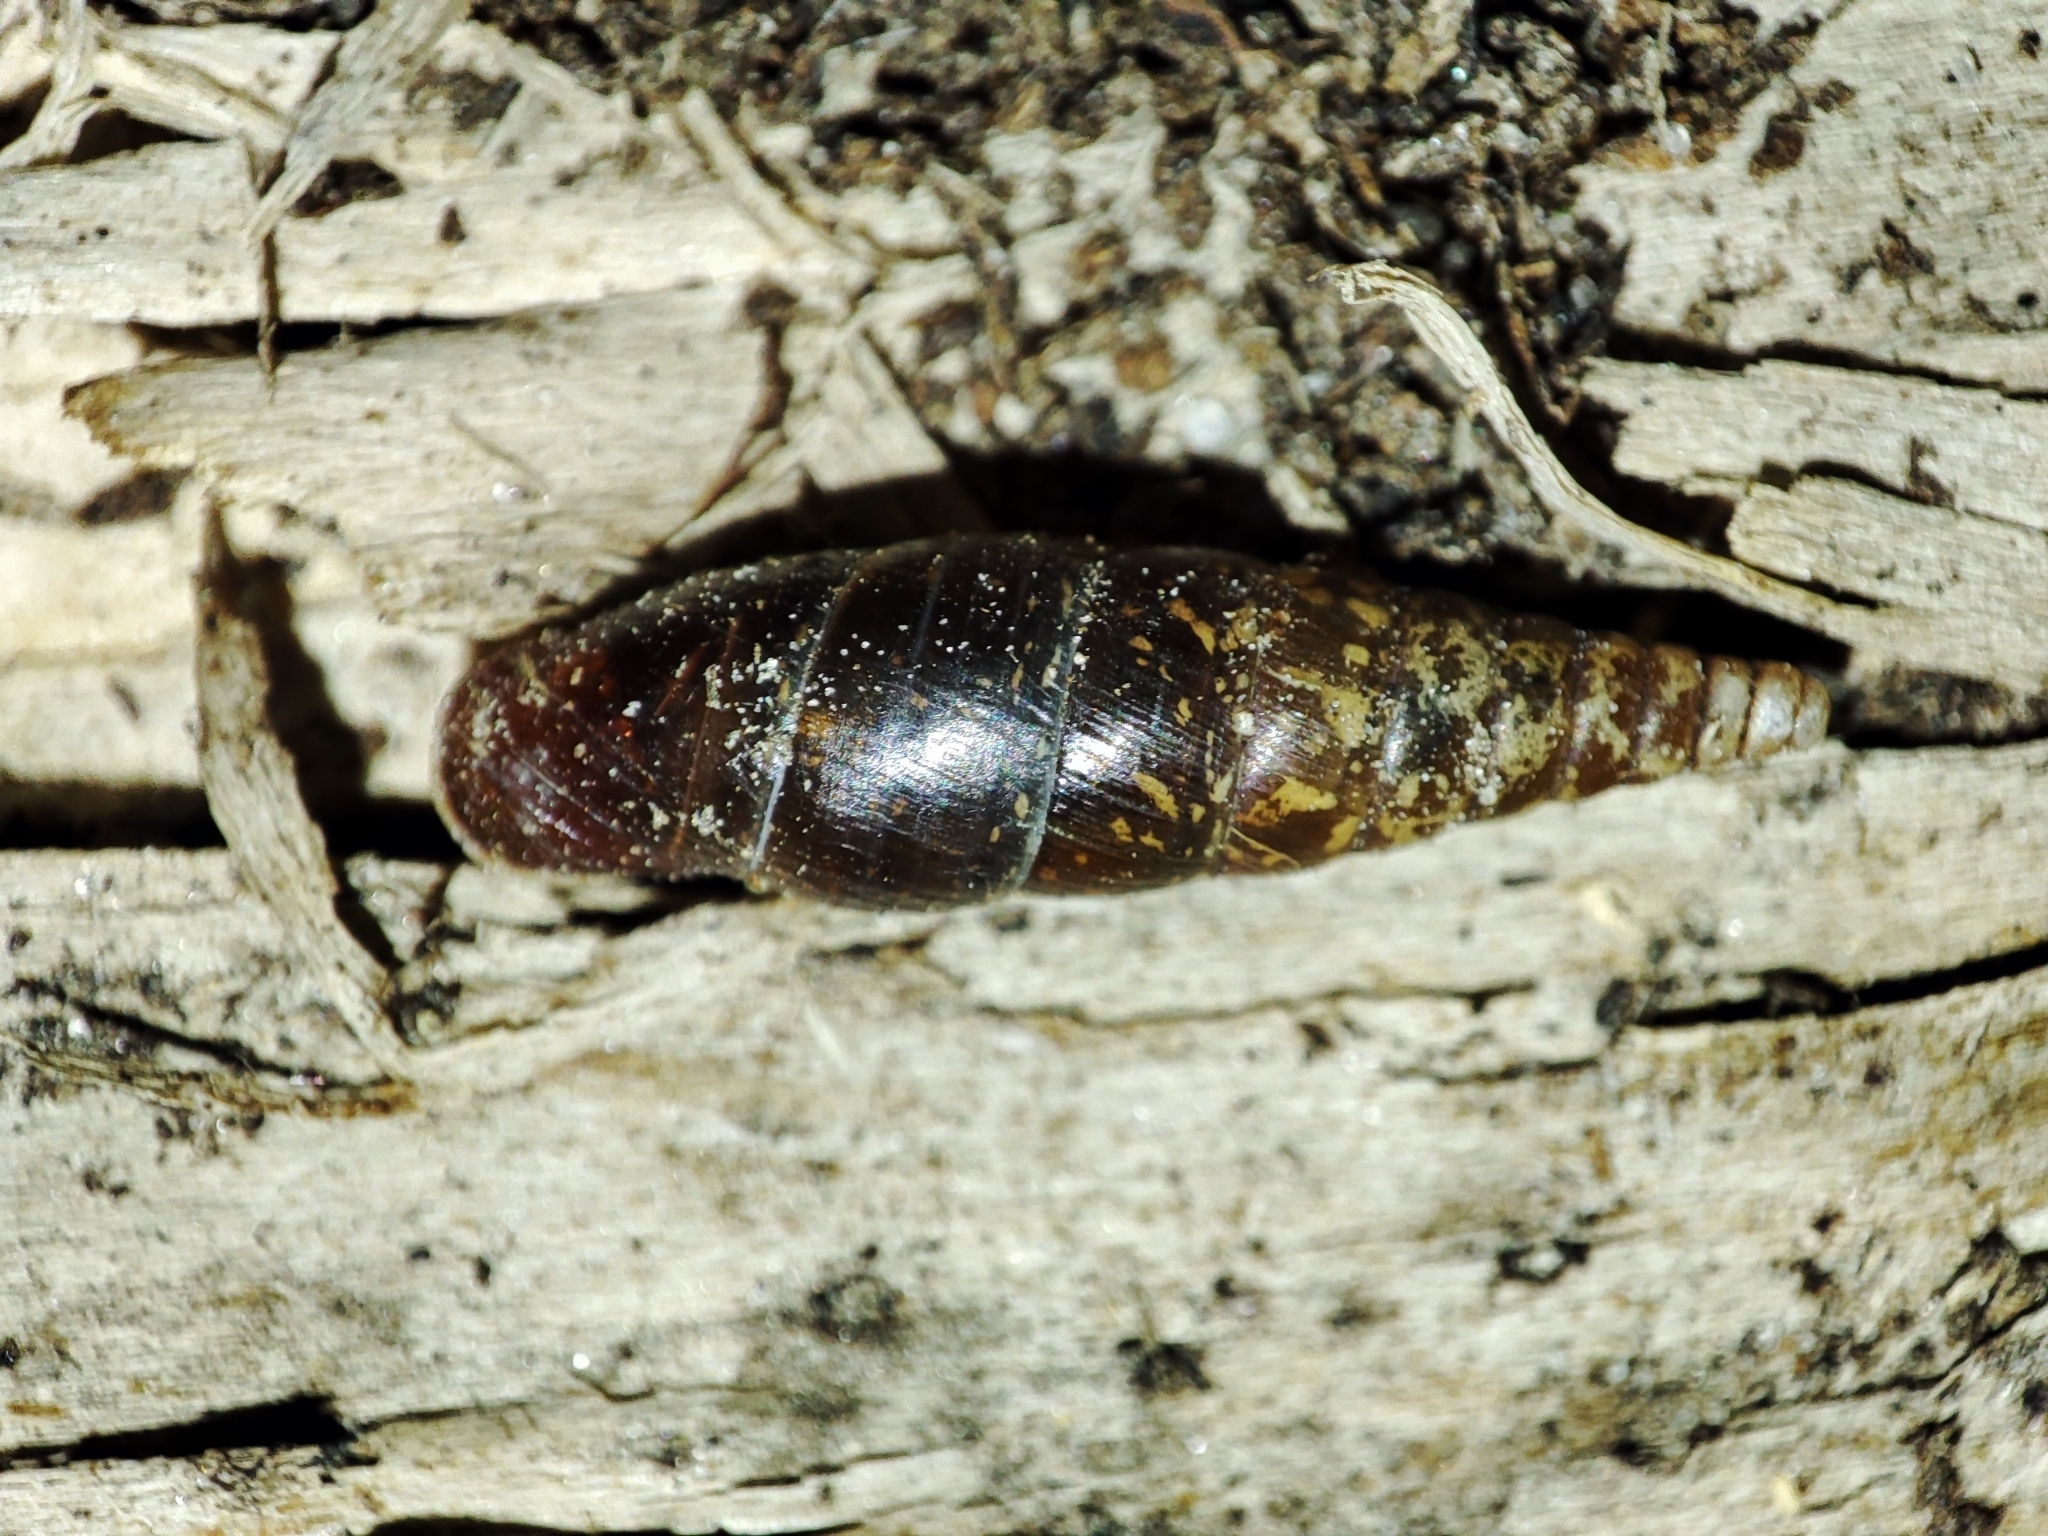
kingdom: Animalia
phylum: Mollusca
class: Gastropoda
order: Stylommatophora
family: Clausiliidae
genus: Cochlodina
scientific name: Cochlodina laminata
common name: Plaited door snail
